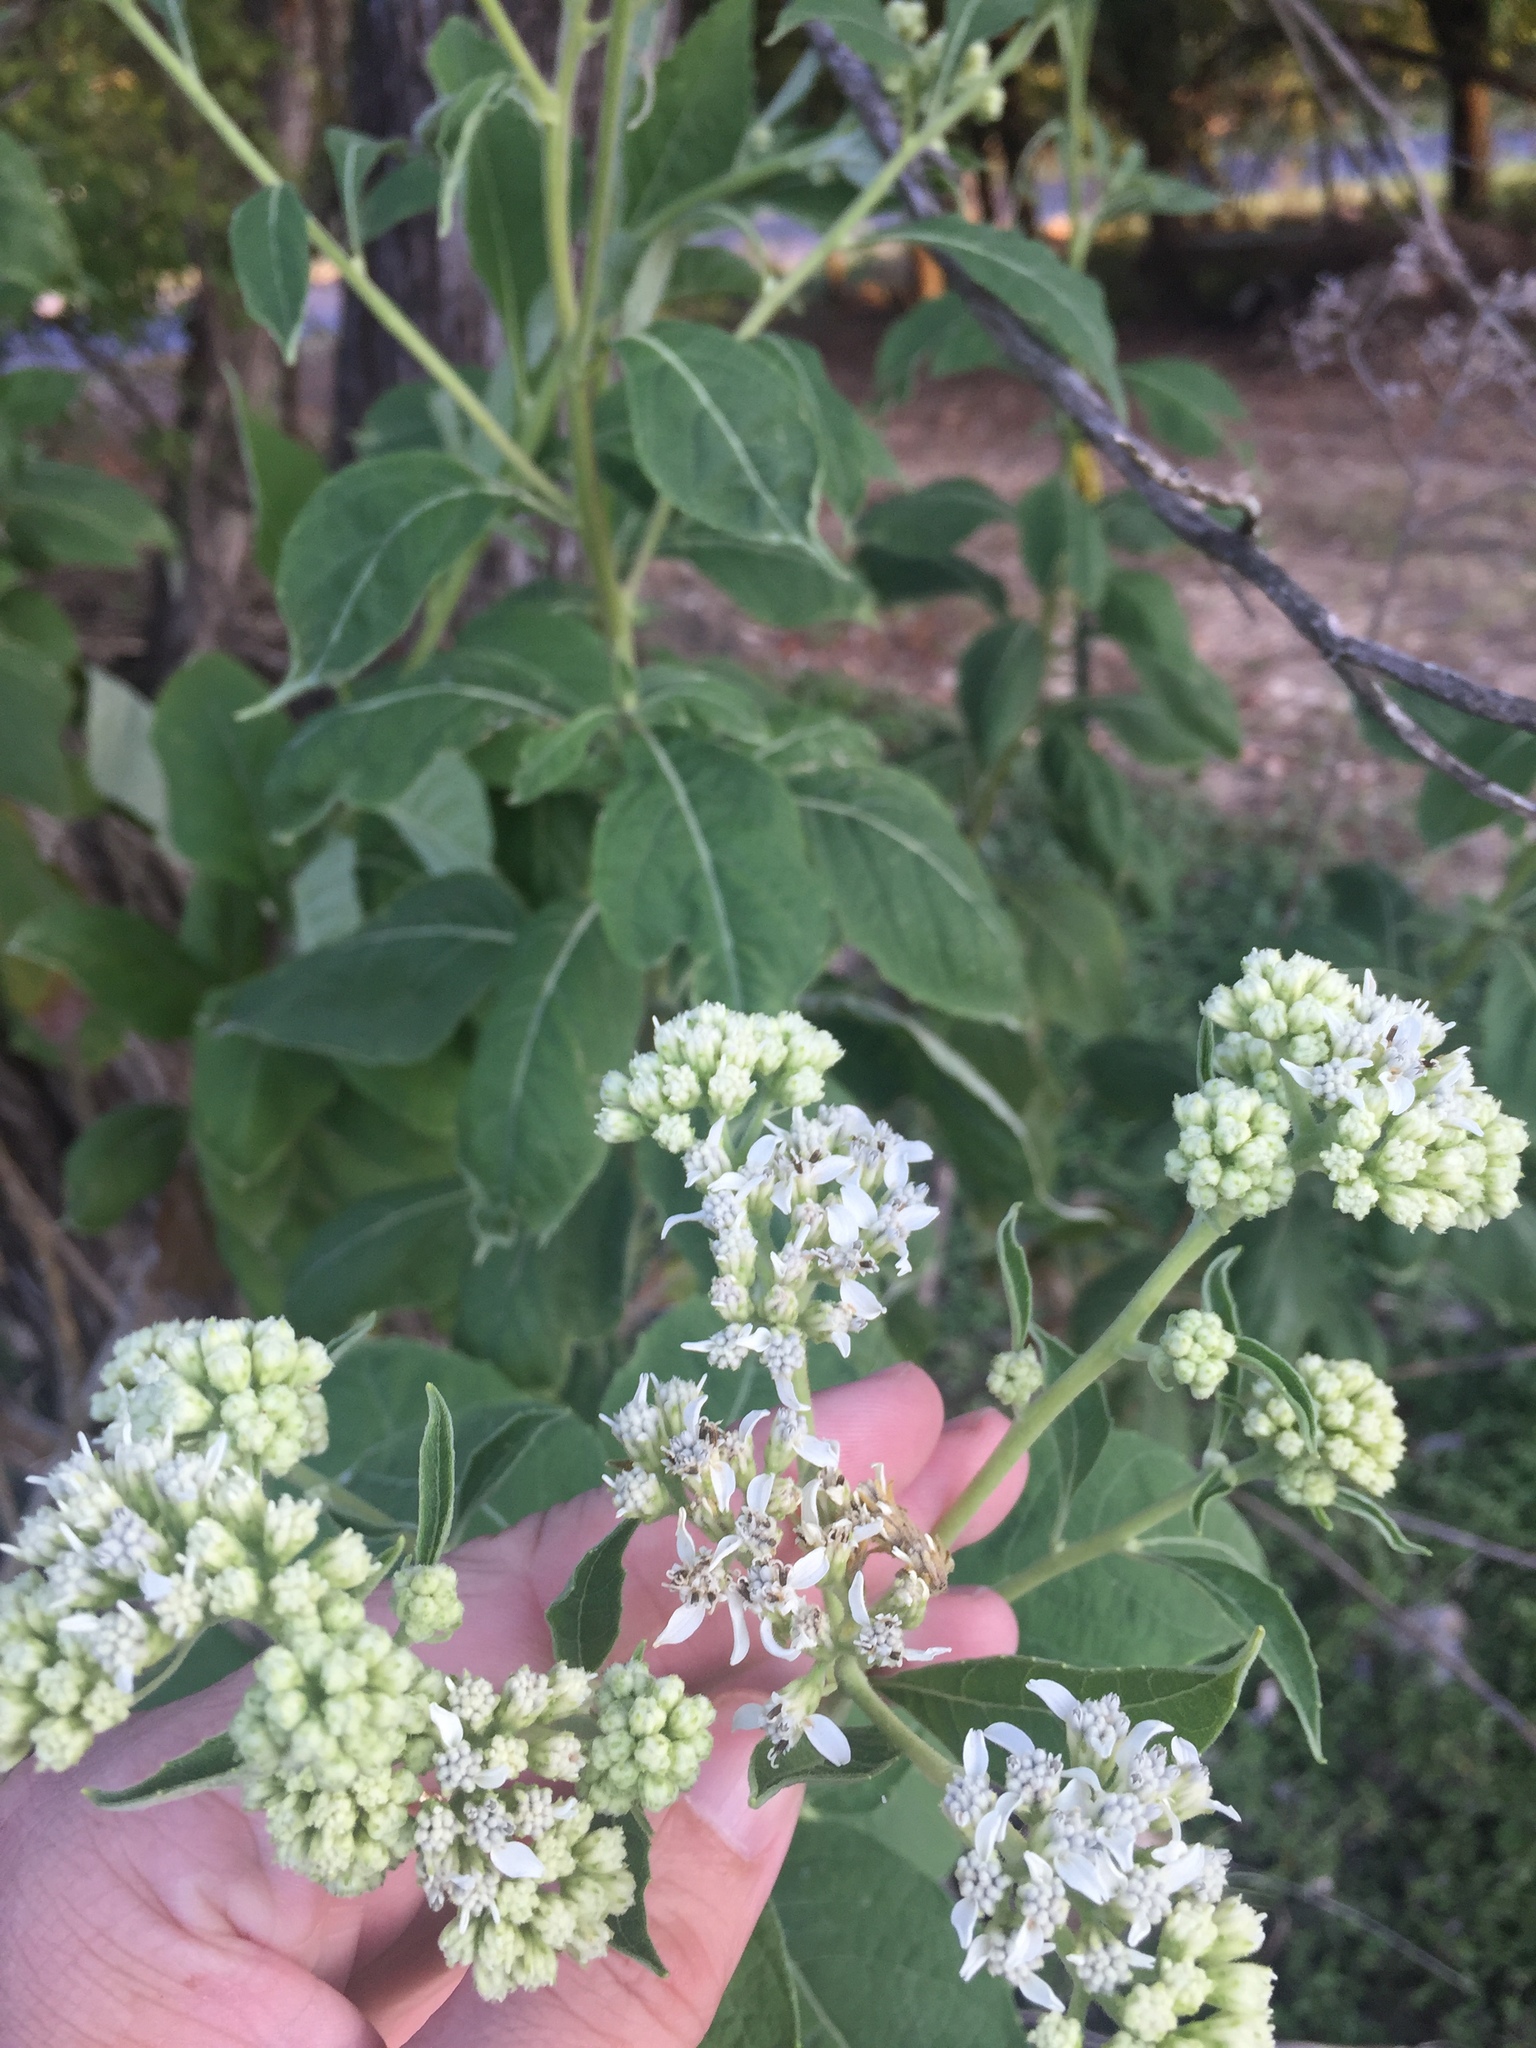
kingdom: Plantae
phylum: Tracheophyta
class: Magnoliopsida
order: Asterales
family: Asteraceae
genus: Verbesina
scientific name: Verbesina virginica
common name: Frostweed
